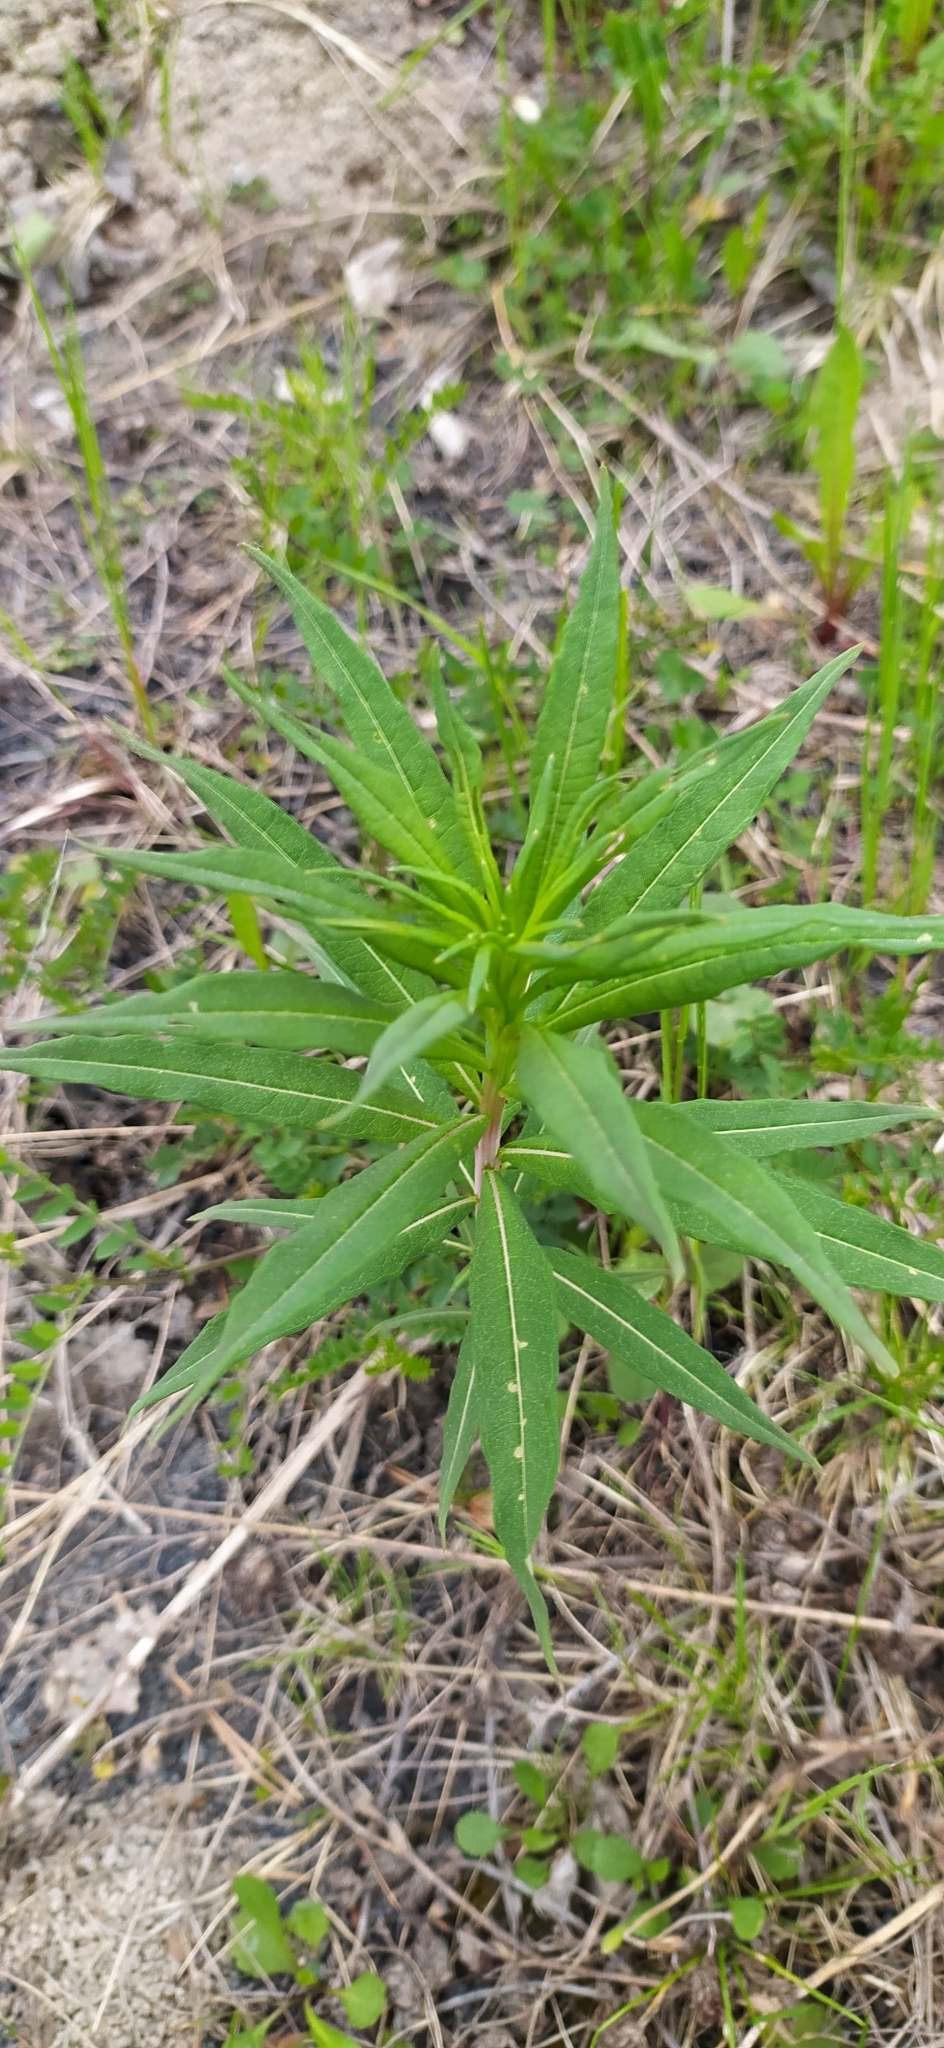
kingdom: Plantae
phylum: Tracheophyta
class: Magnoliopsida
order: Myrtales
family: Onagraceae
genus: Chamaenerion
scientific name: Chamaenerion angustifolium
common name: Fireweed
